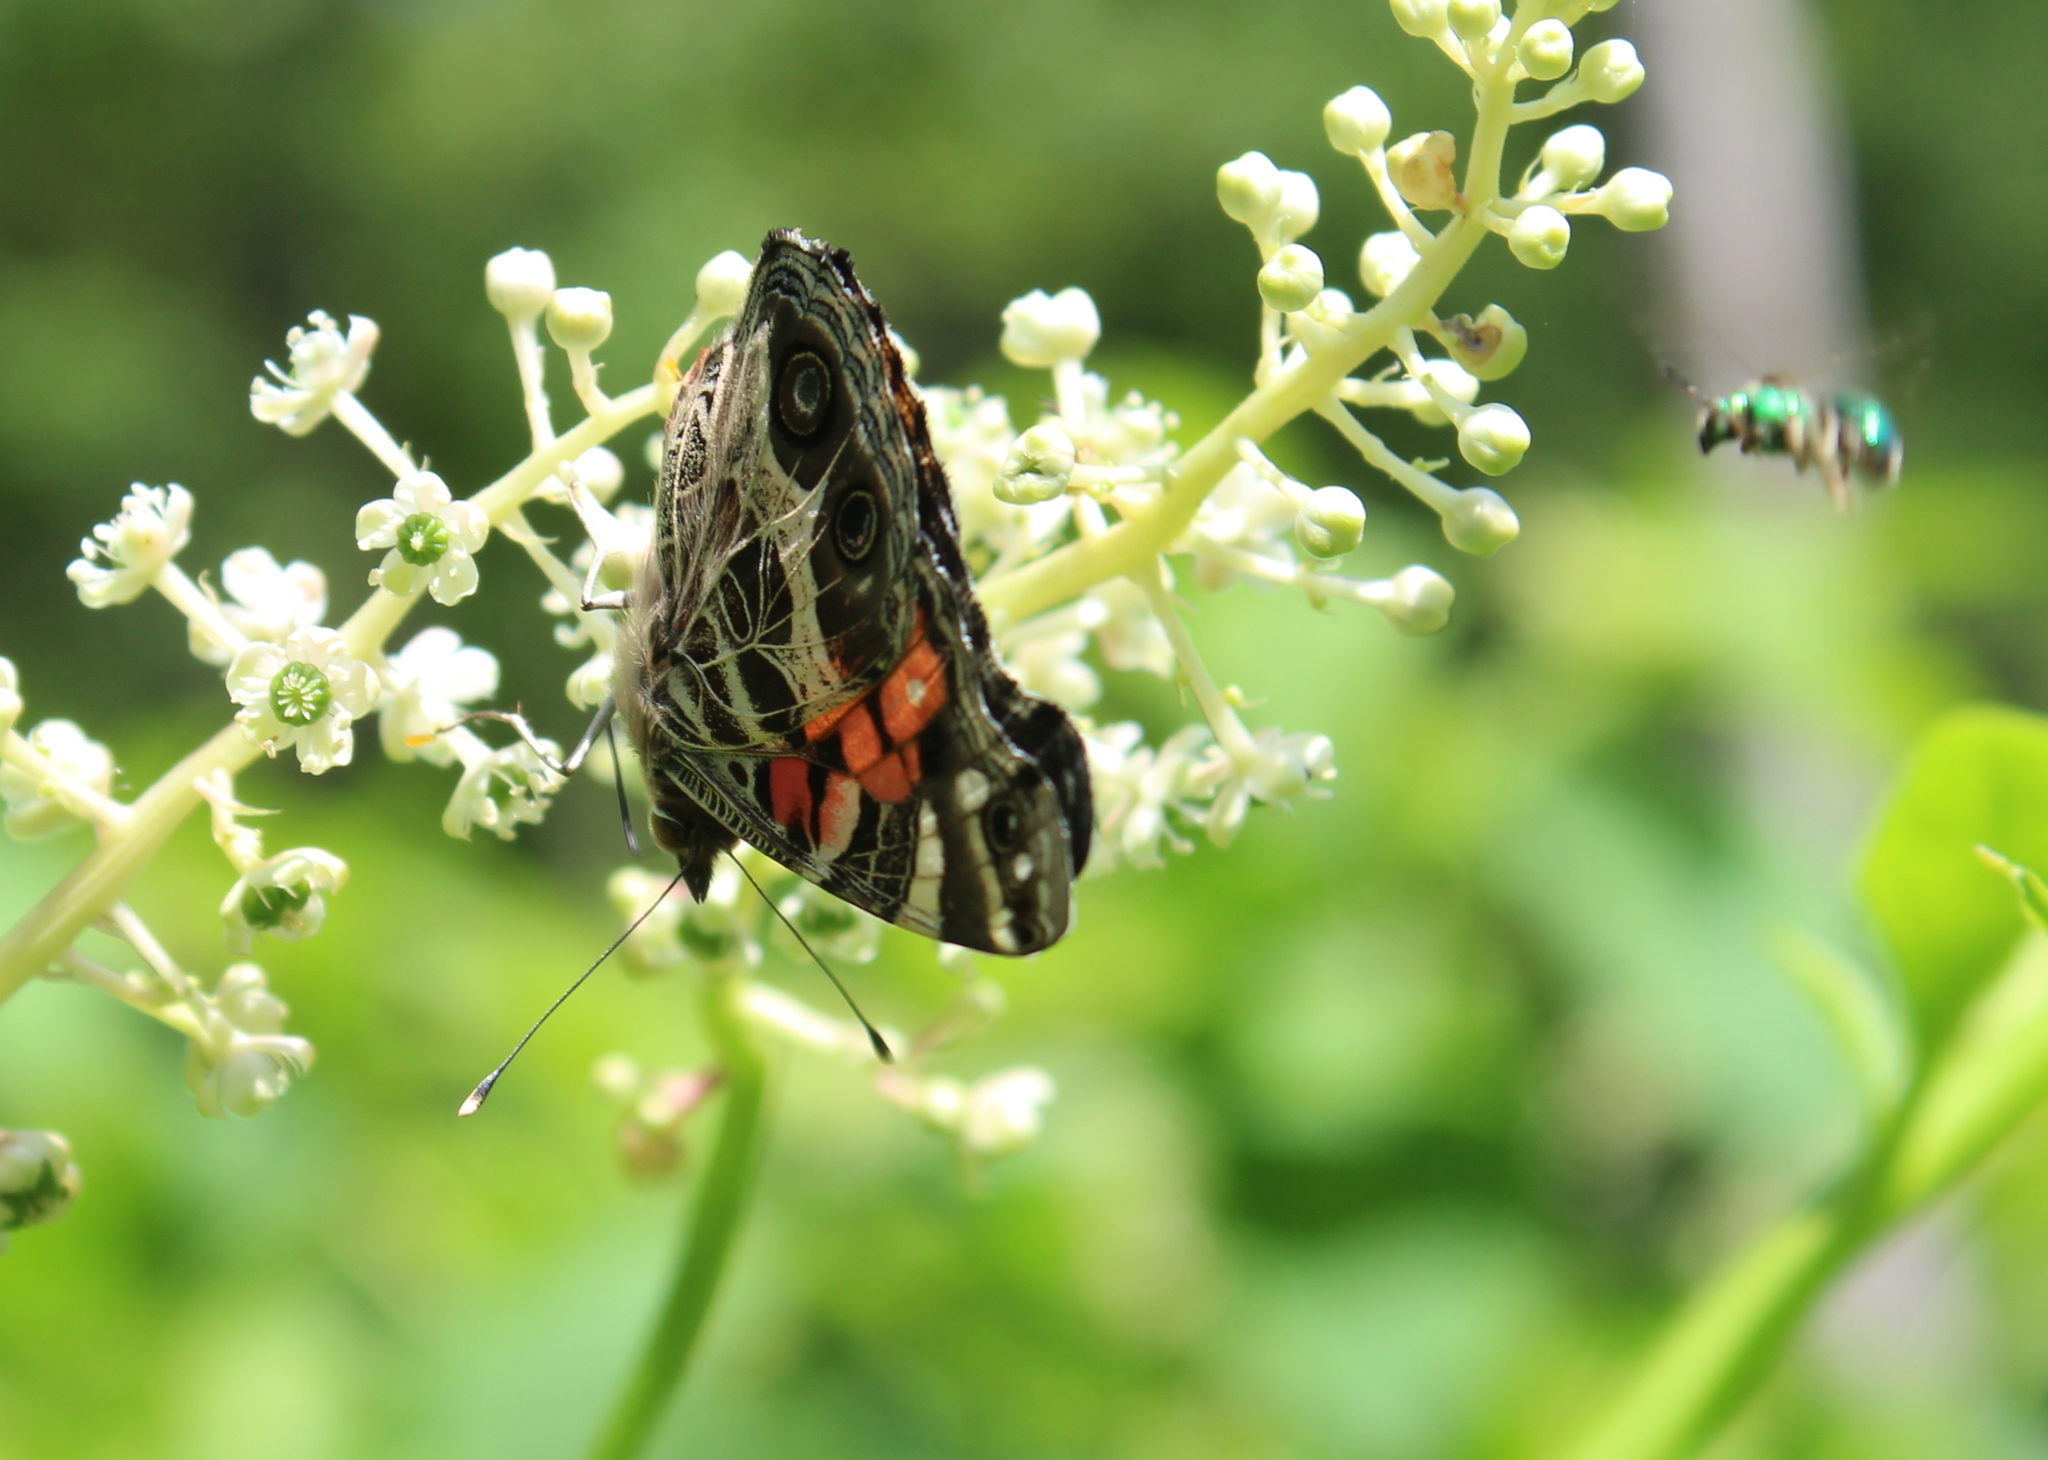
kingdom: Animalia
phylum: Arthropoda
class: Insecta
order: Lepidoptera
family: Nymphalidae
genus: Vanessa
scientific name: Vanessa virginiensis
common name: American lady
